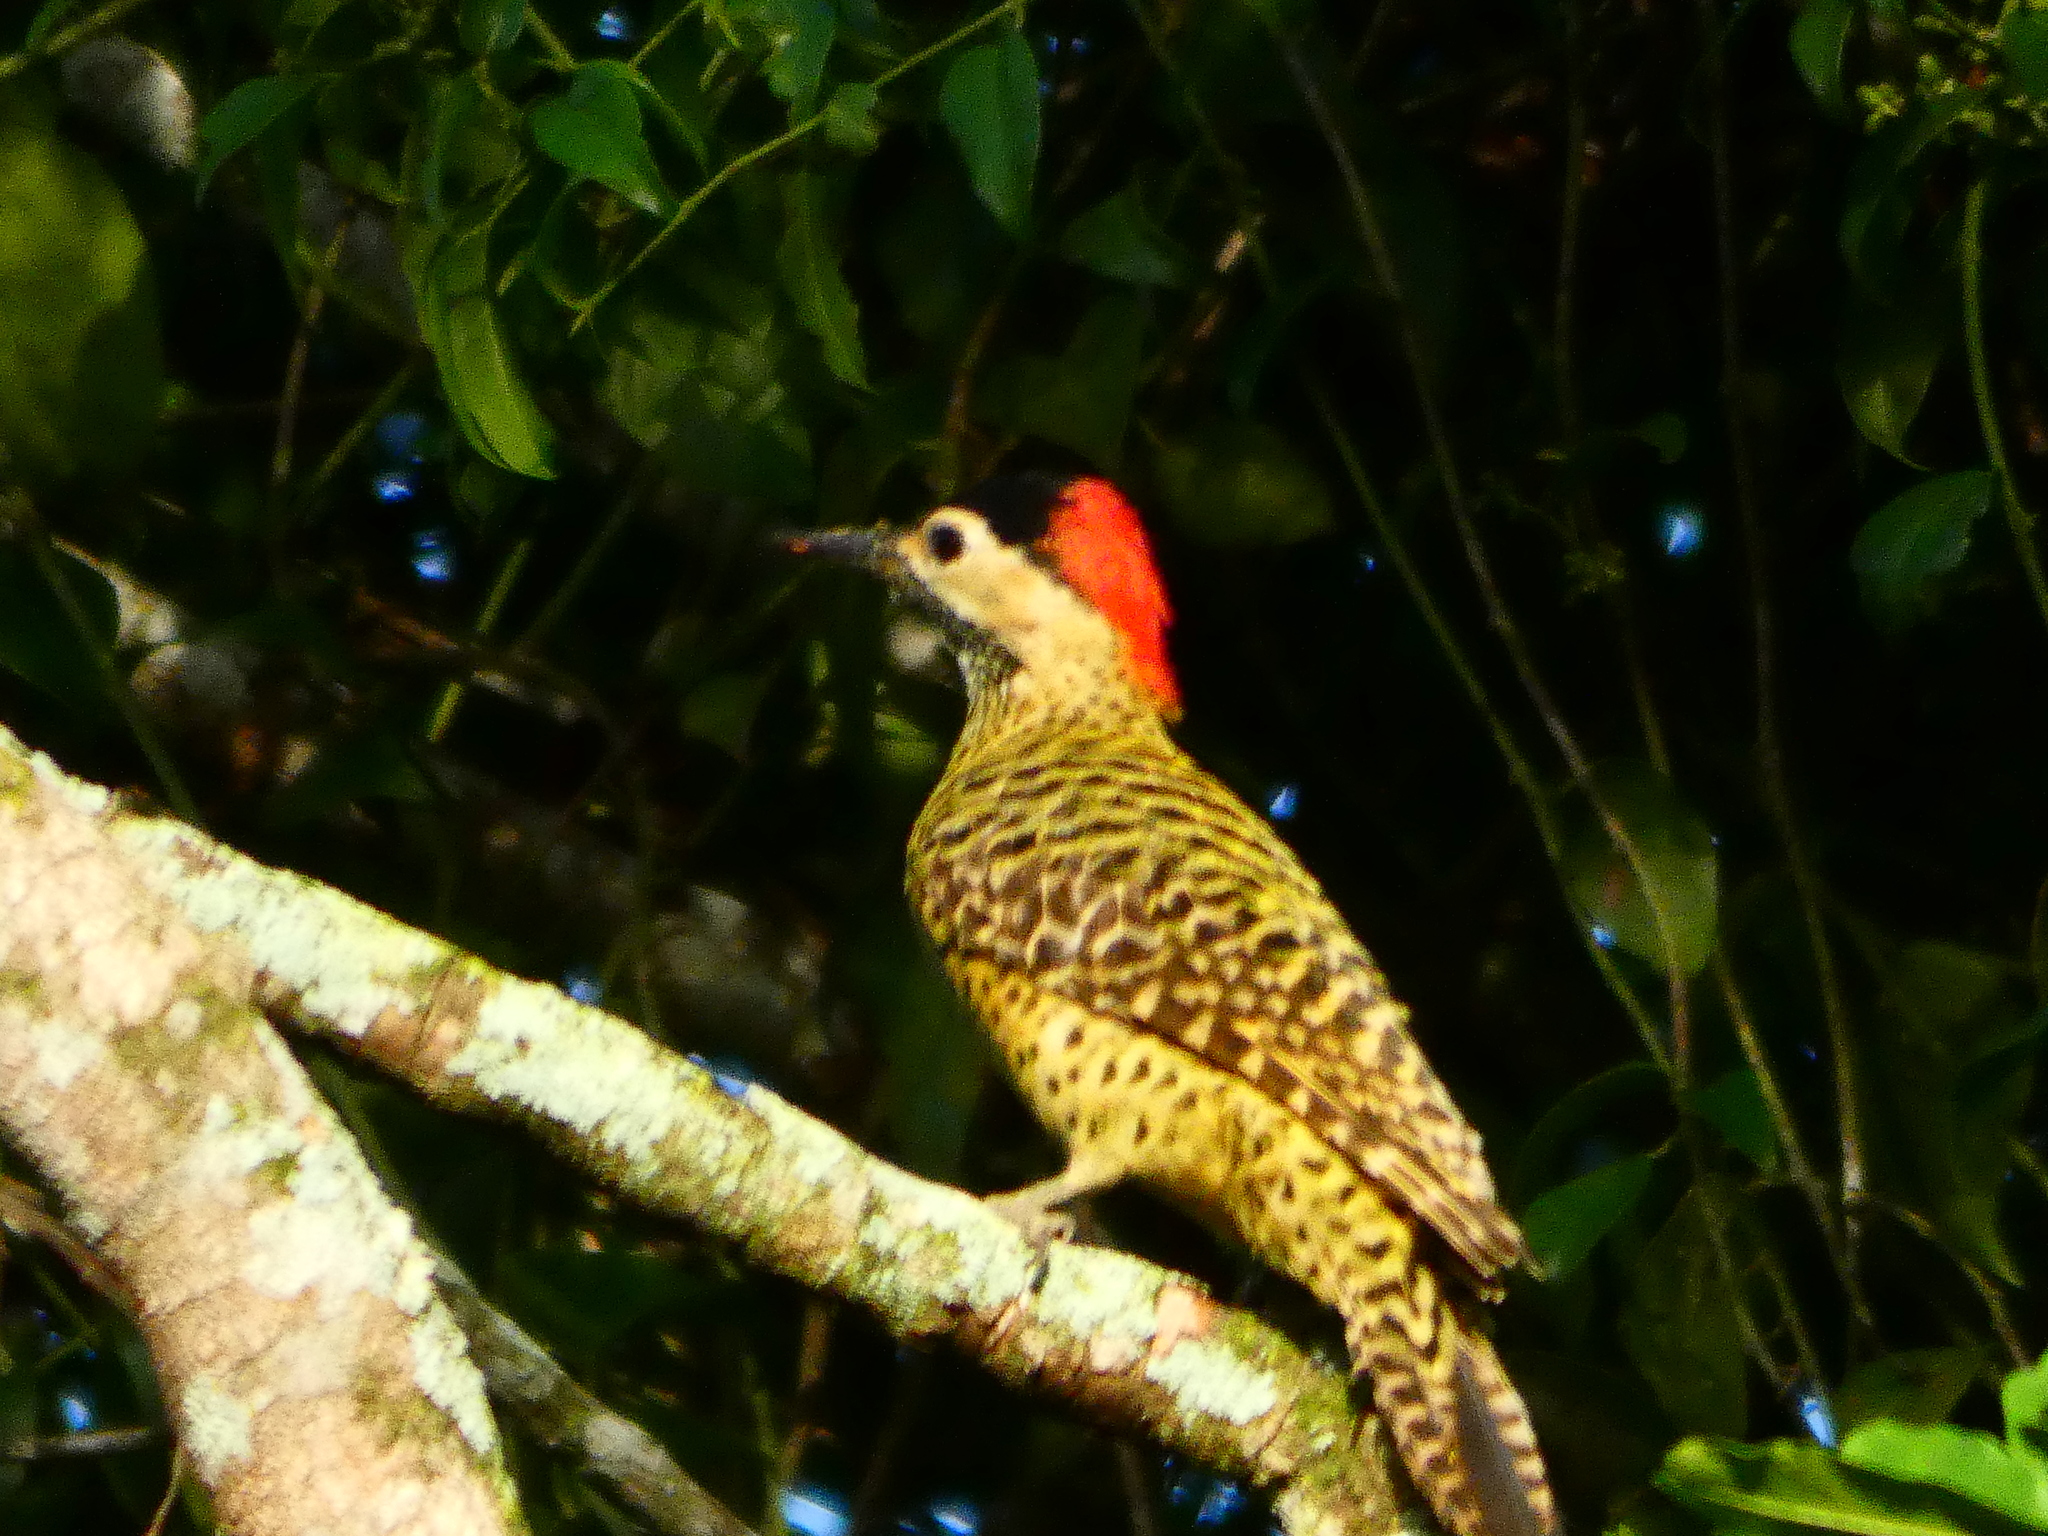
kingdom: Animalia
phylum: Chordata
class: Aves
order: Piciformes
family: Picidae
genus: Colaptes
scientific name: Colaptes melanochloros
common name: Green-barred woodpecker
